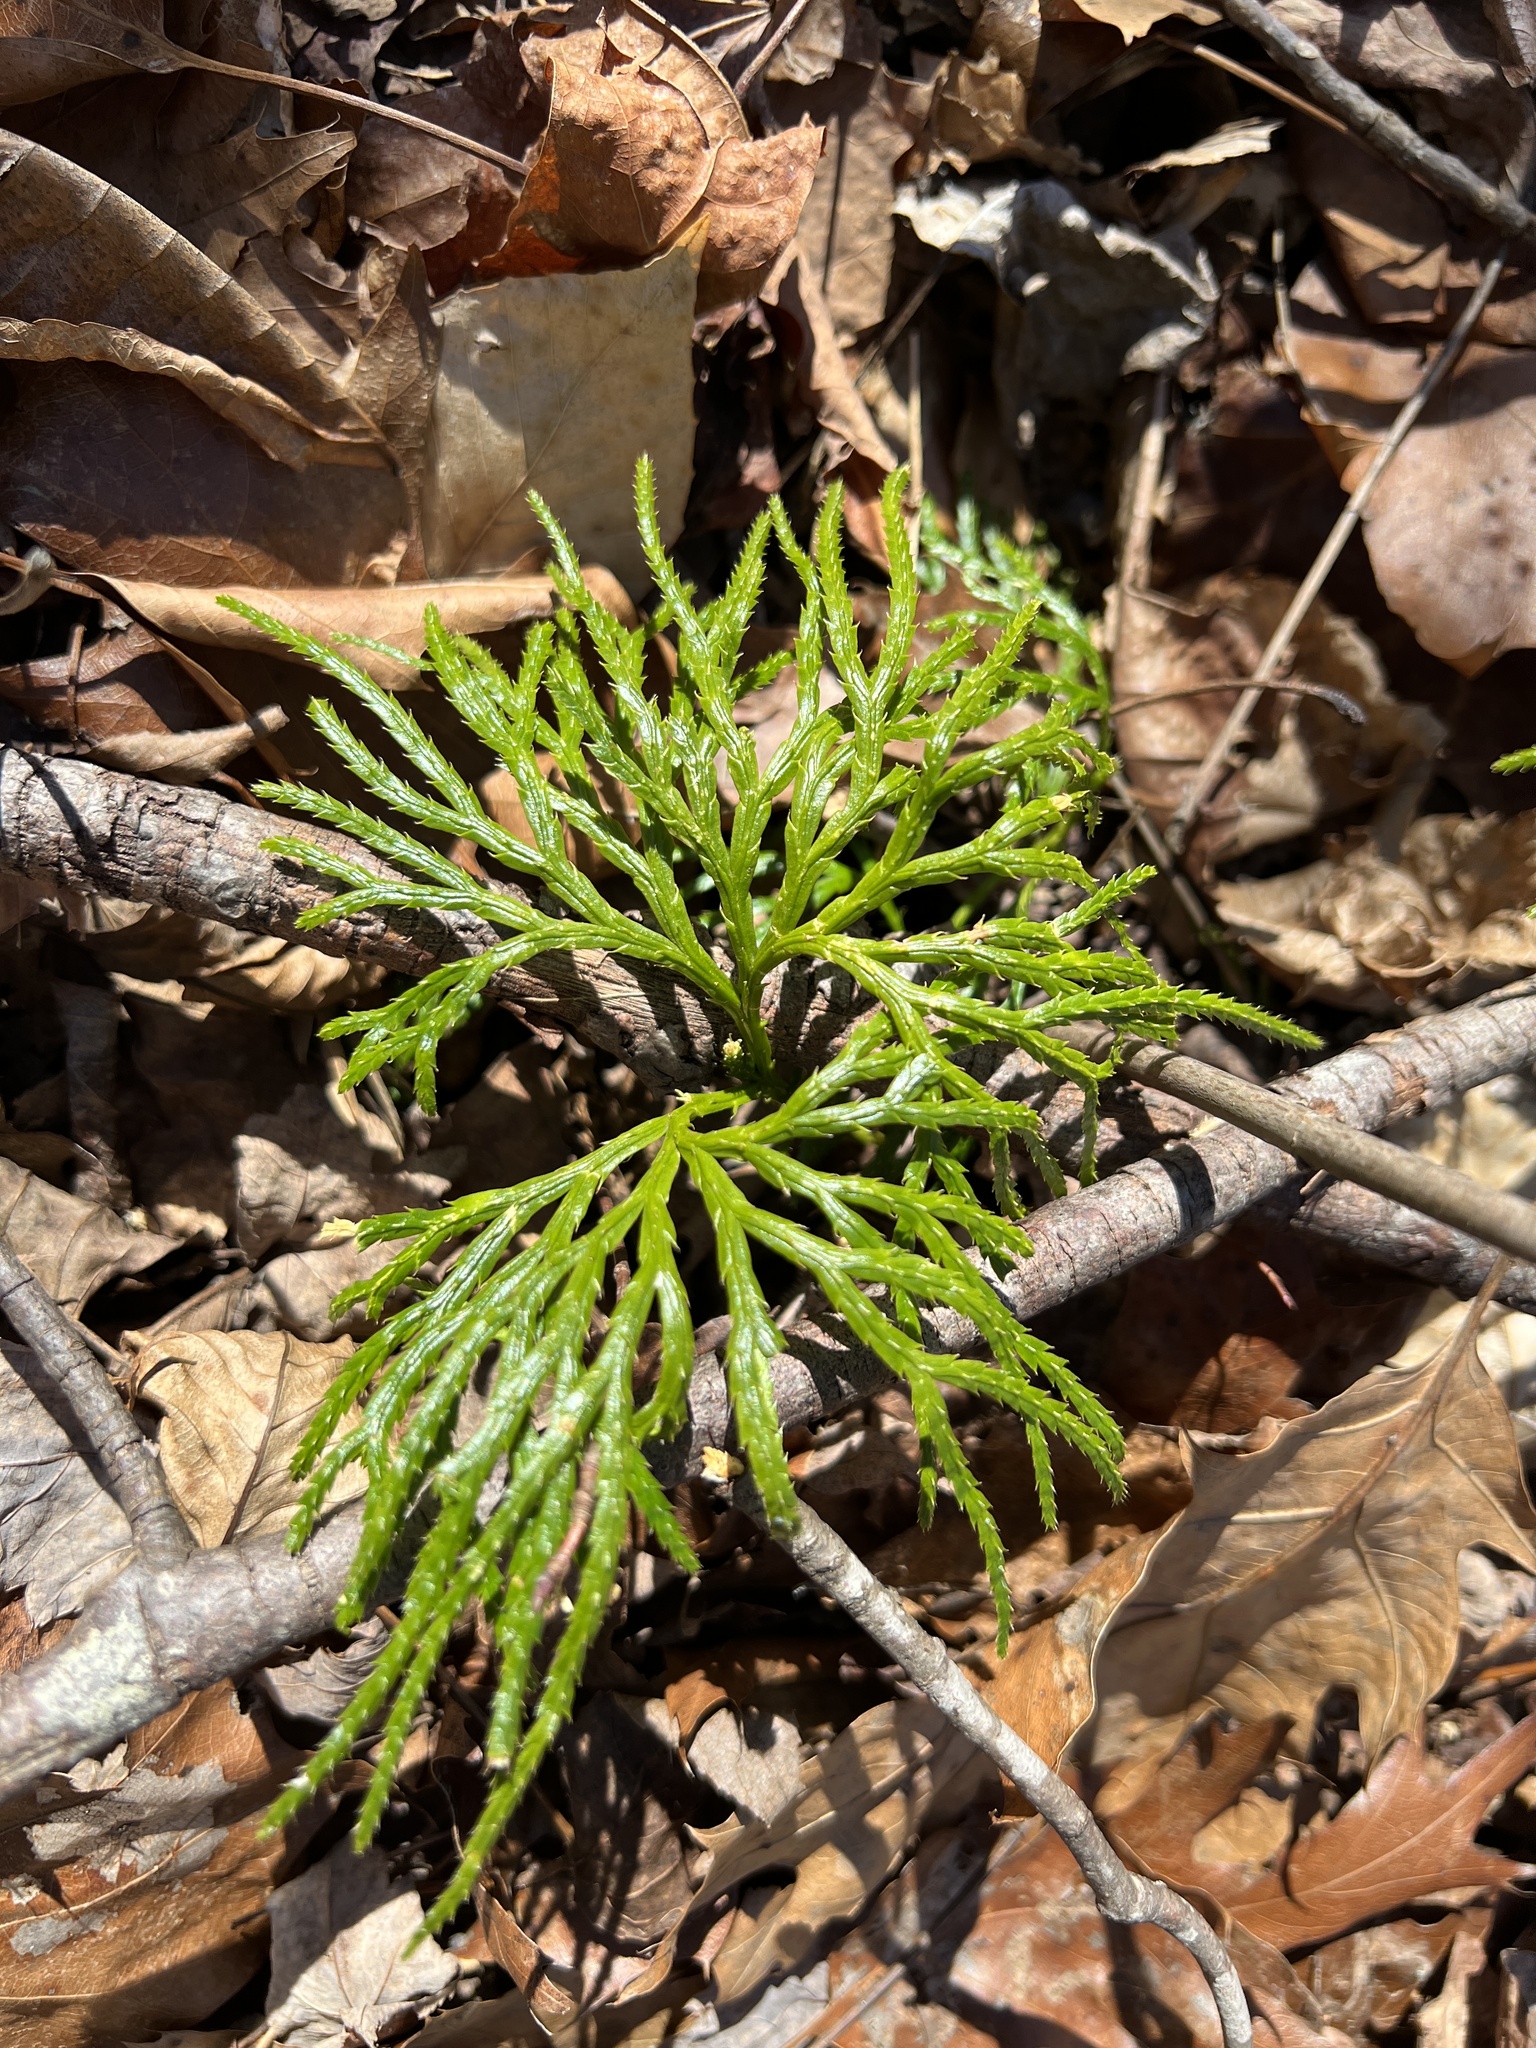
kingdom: Plantae
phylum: Tracheophyta
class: Lycopodiopsida
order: Lycopodiales
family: Lycopodiaceae
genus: Diphasiastrum
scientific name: Diphasiastrum digitatum
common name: Southern running-pine
